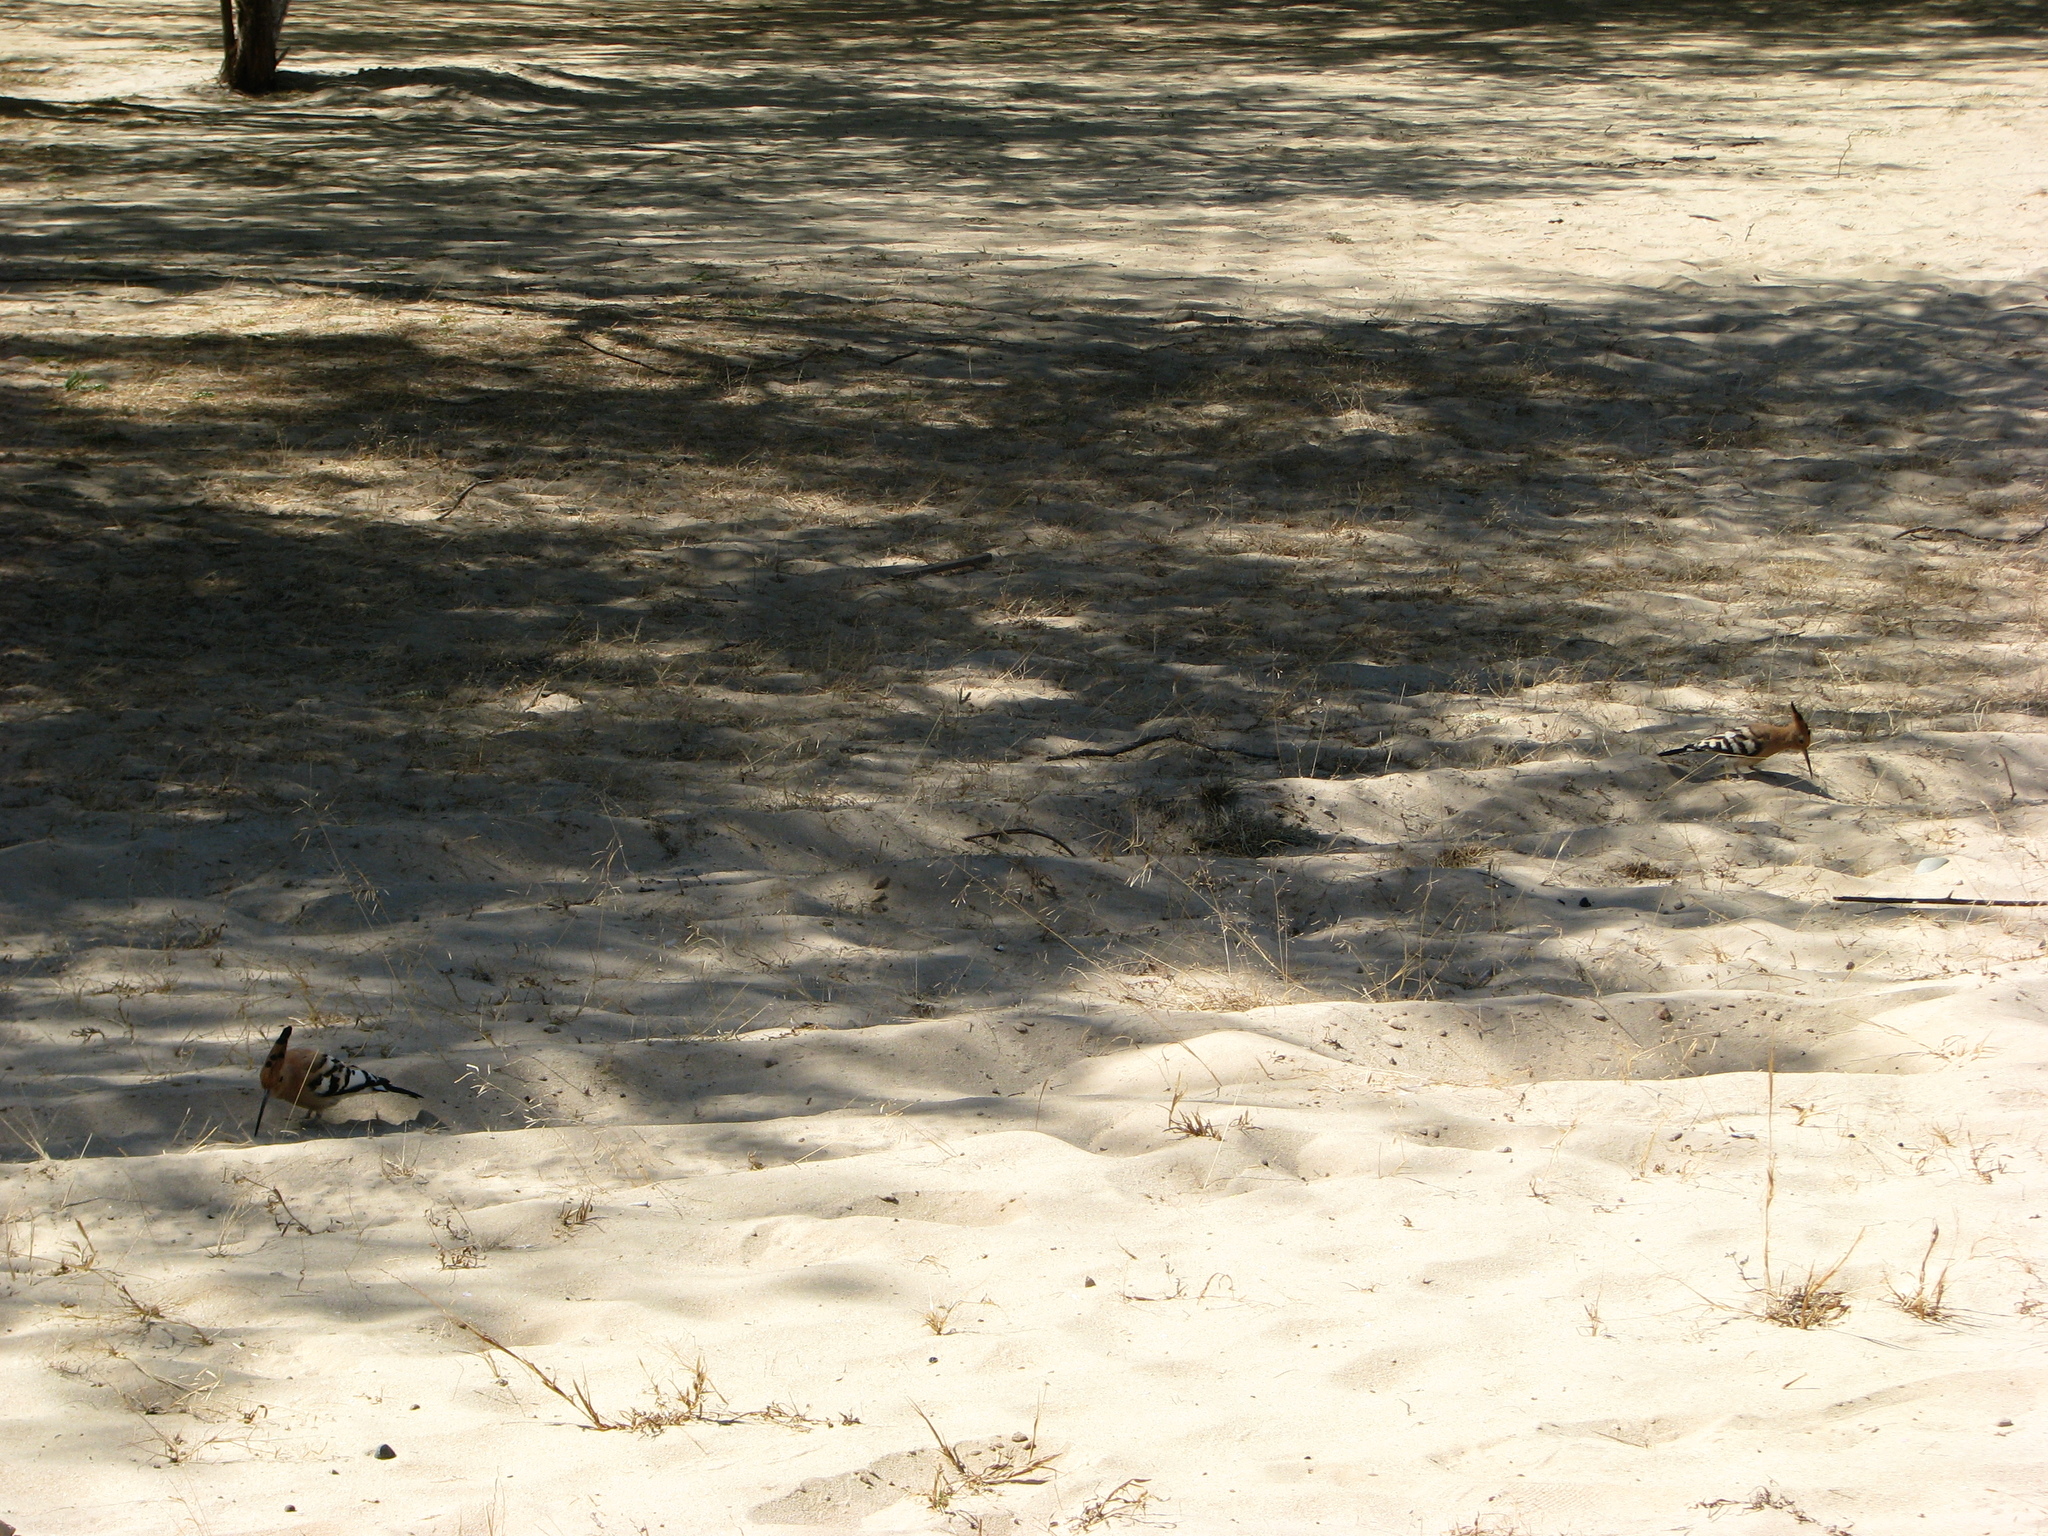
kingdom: Animalia
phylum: Chordata
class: Aves
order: Bucerotiformes
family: Upupidae
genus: Upupa
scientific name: Upupa epops
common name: Eurasian hoopoe
